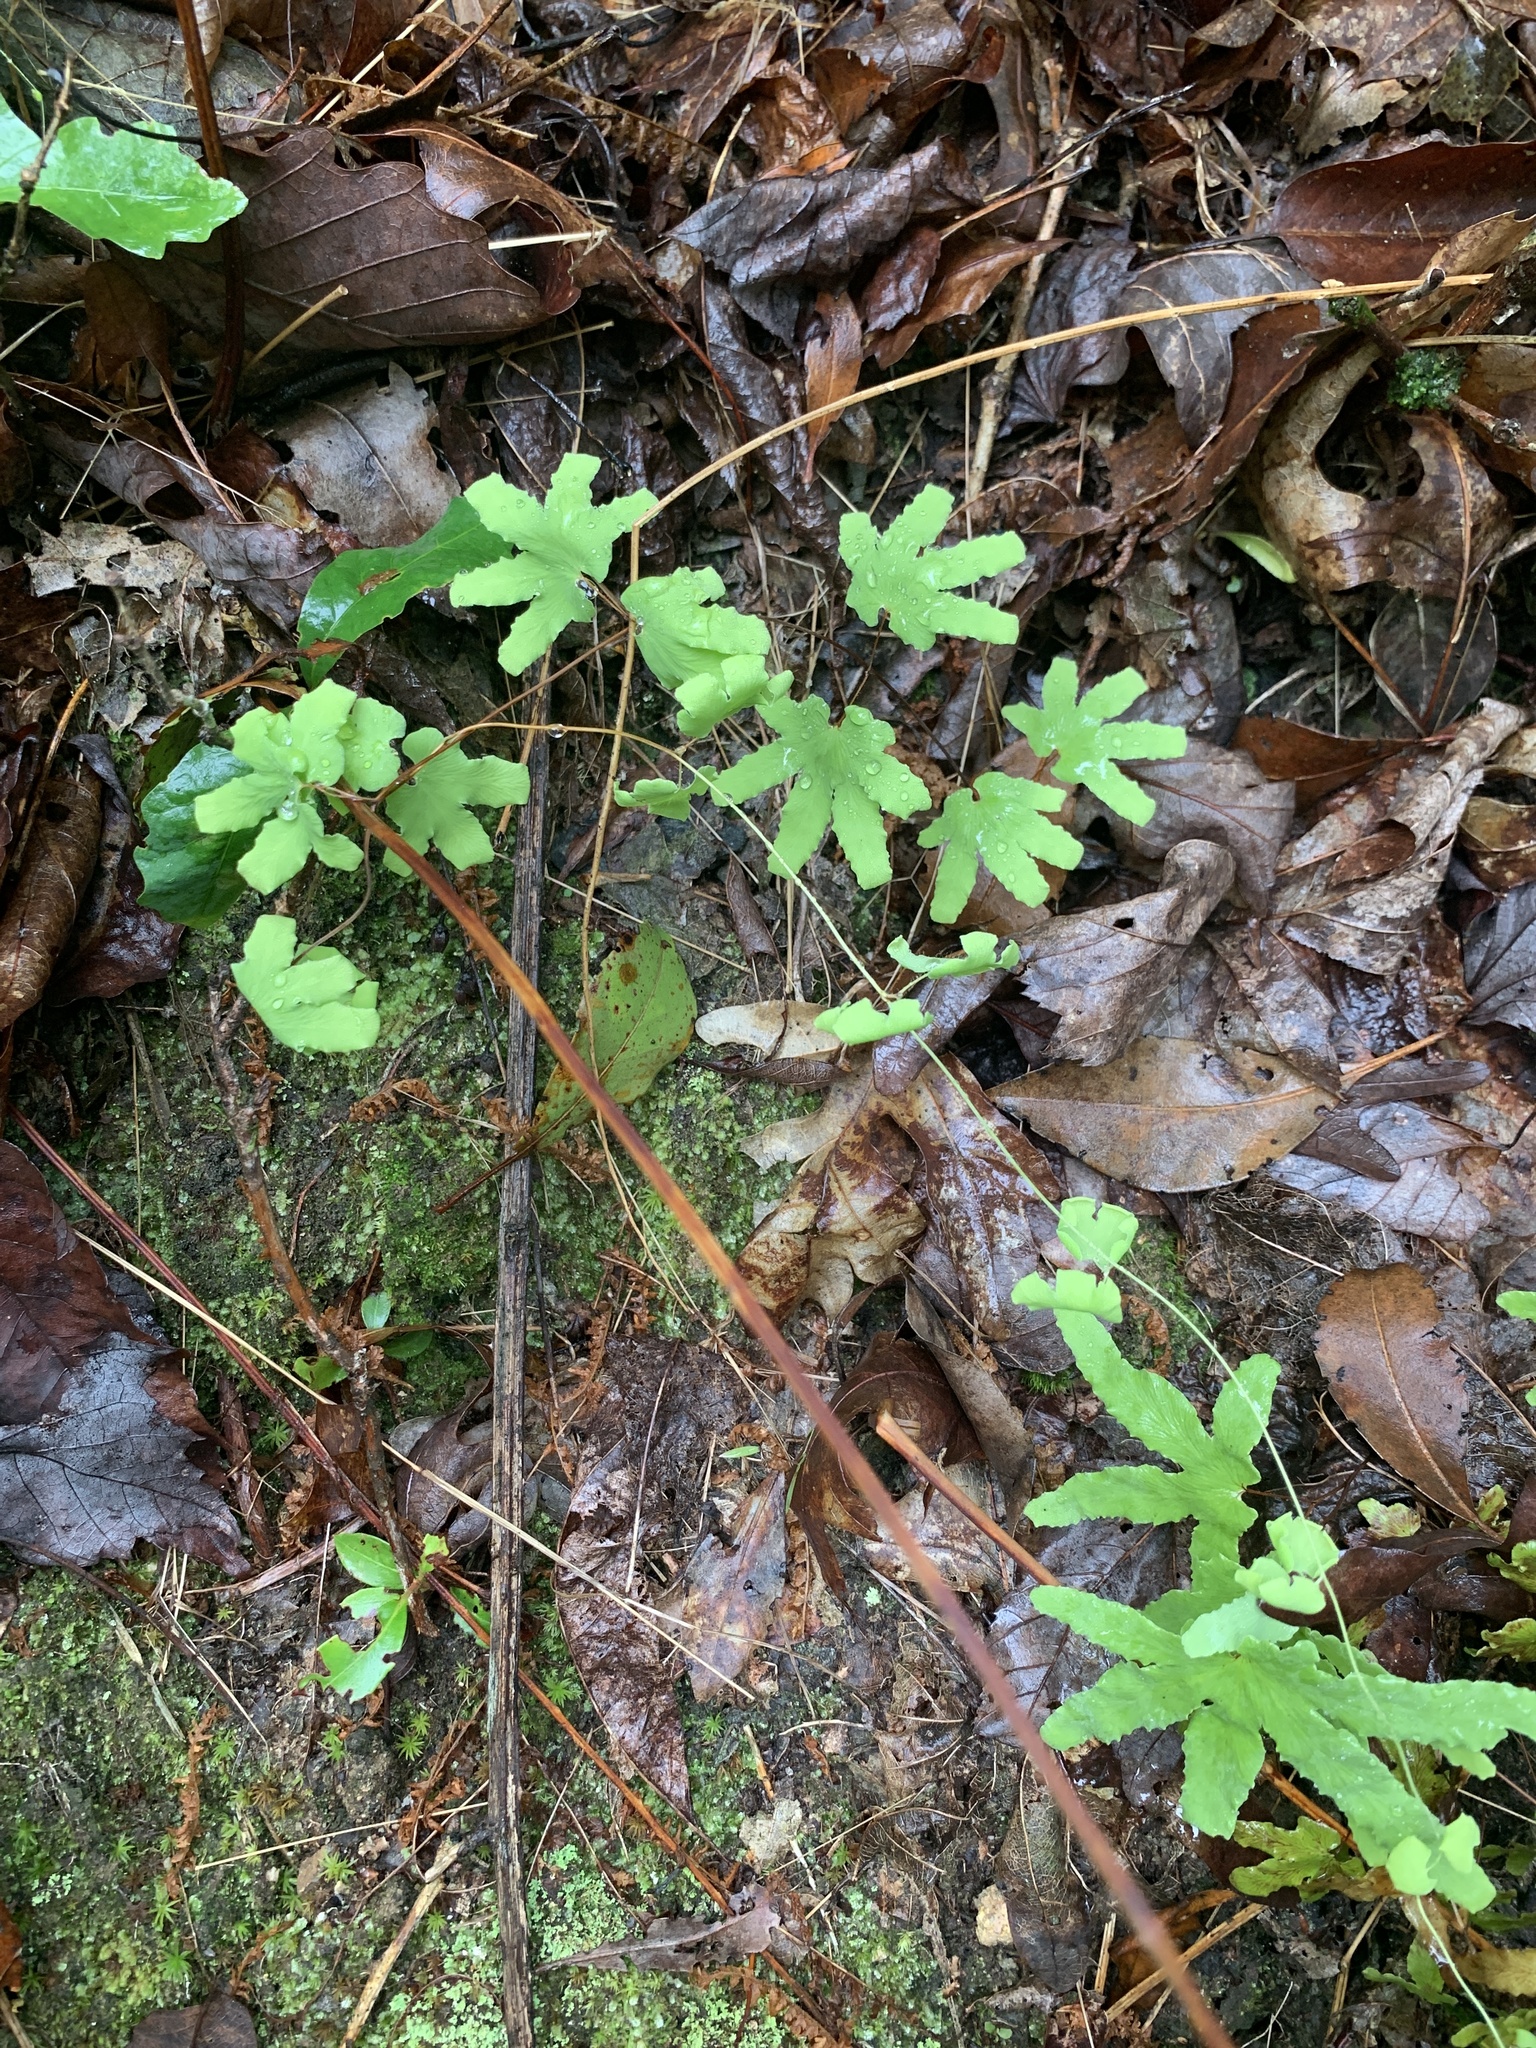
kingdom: Plantae
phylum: Tracheophyta
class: Polypodiopsida
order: Schizaeales
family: Lygodiaceae
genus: Lygodium
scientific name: Lygodium palmatum
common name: American climbing fern
